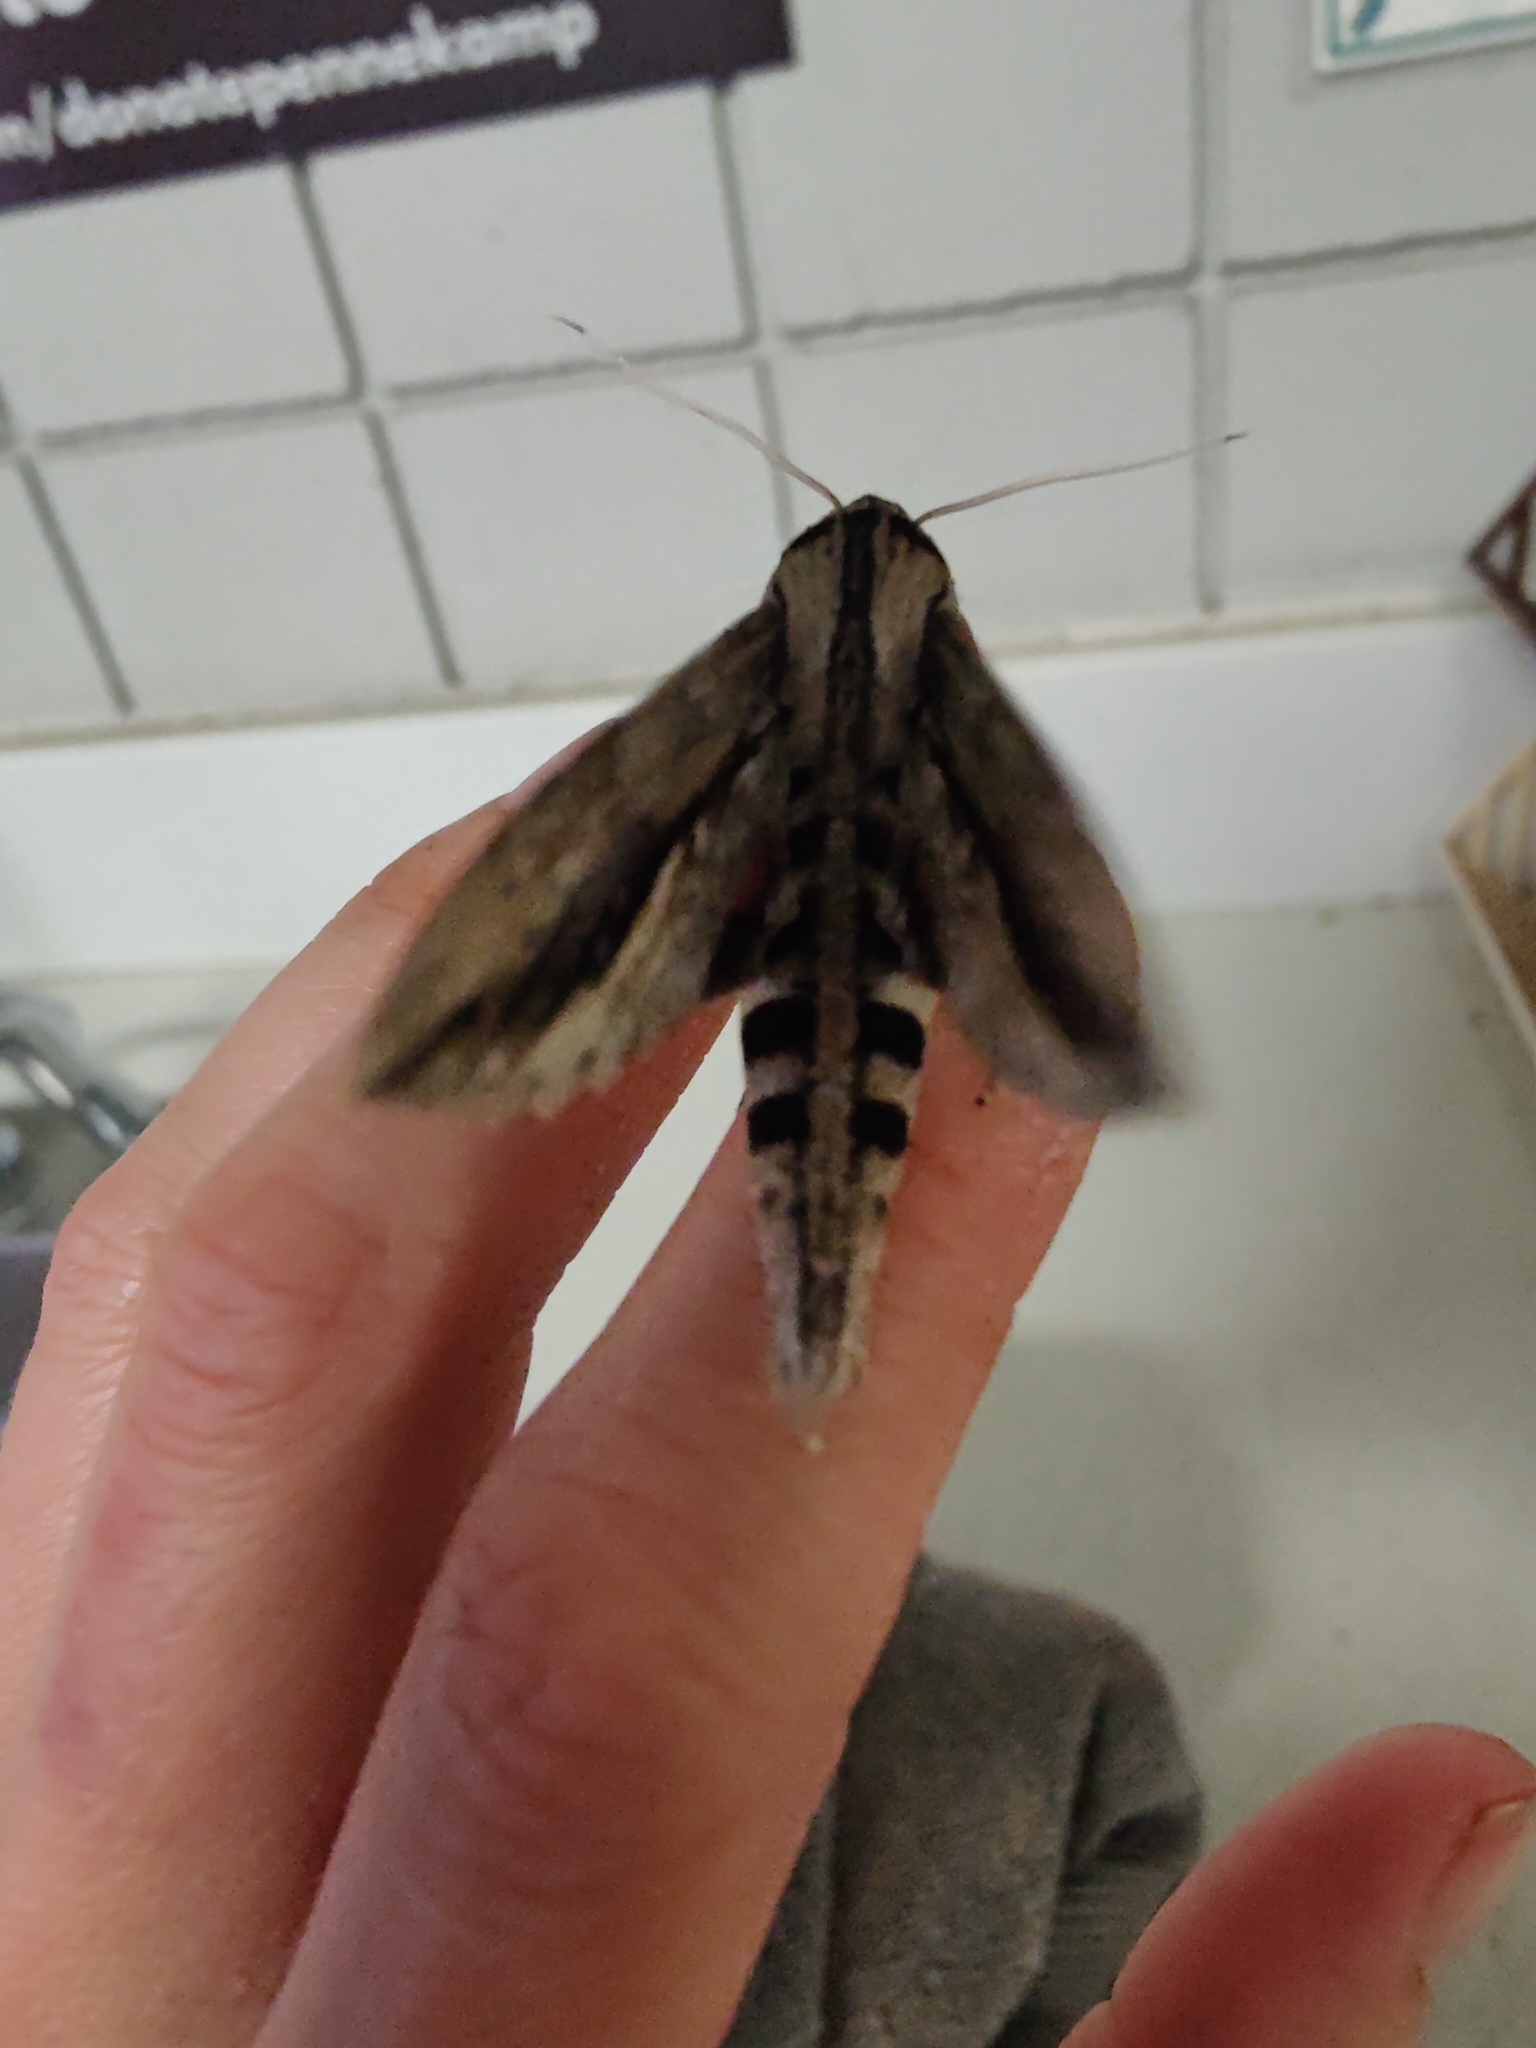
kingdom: Animalia
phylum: Arthropoda
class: Insecta
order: Lepidoptera
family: Sphingidae
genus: Erinnyis
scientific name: Erinnyis ello
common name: Ello sphinx
